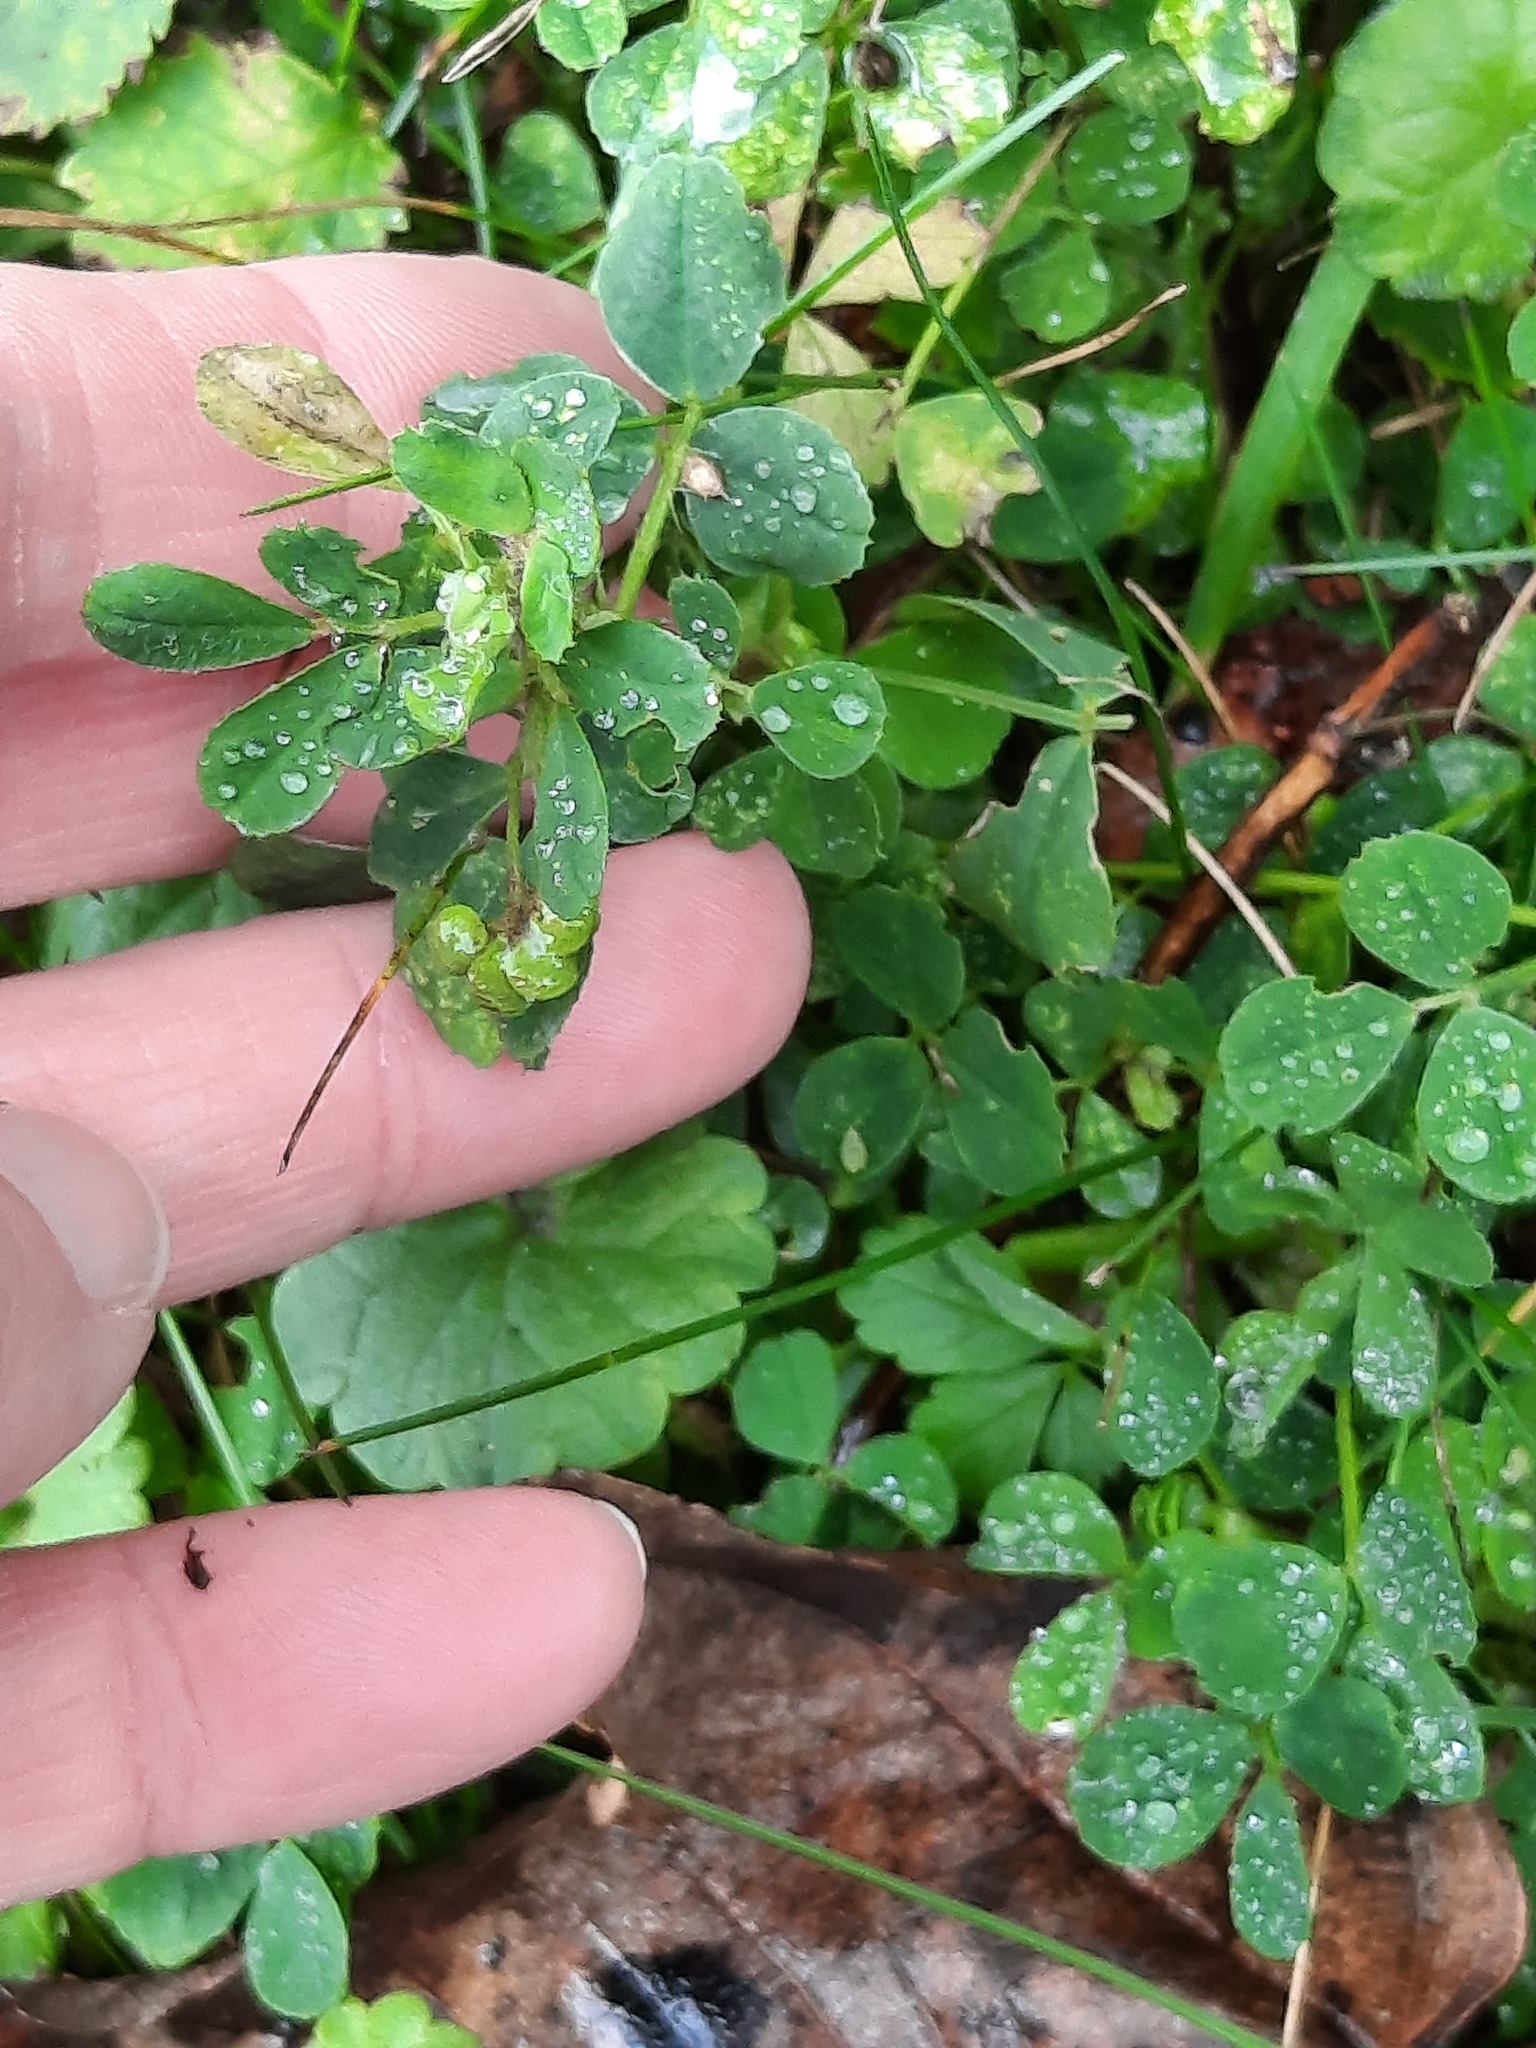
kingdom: Plantae
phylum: Tracheophyta
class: Magnoliopsida
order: Fabales
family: Fabaceae
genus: Medicago
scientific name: Medicago lupulina
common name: Black medick
